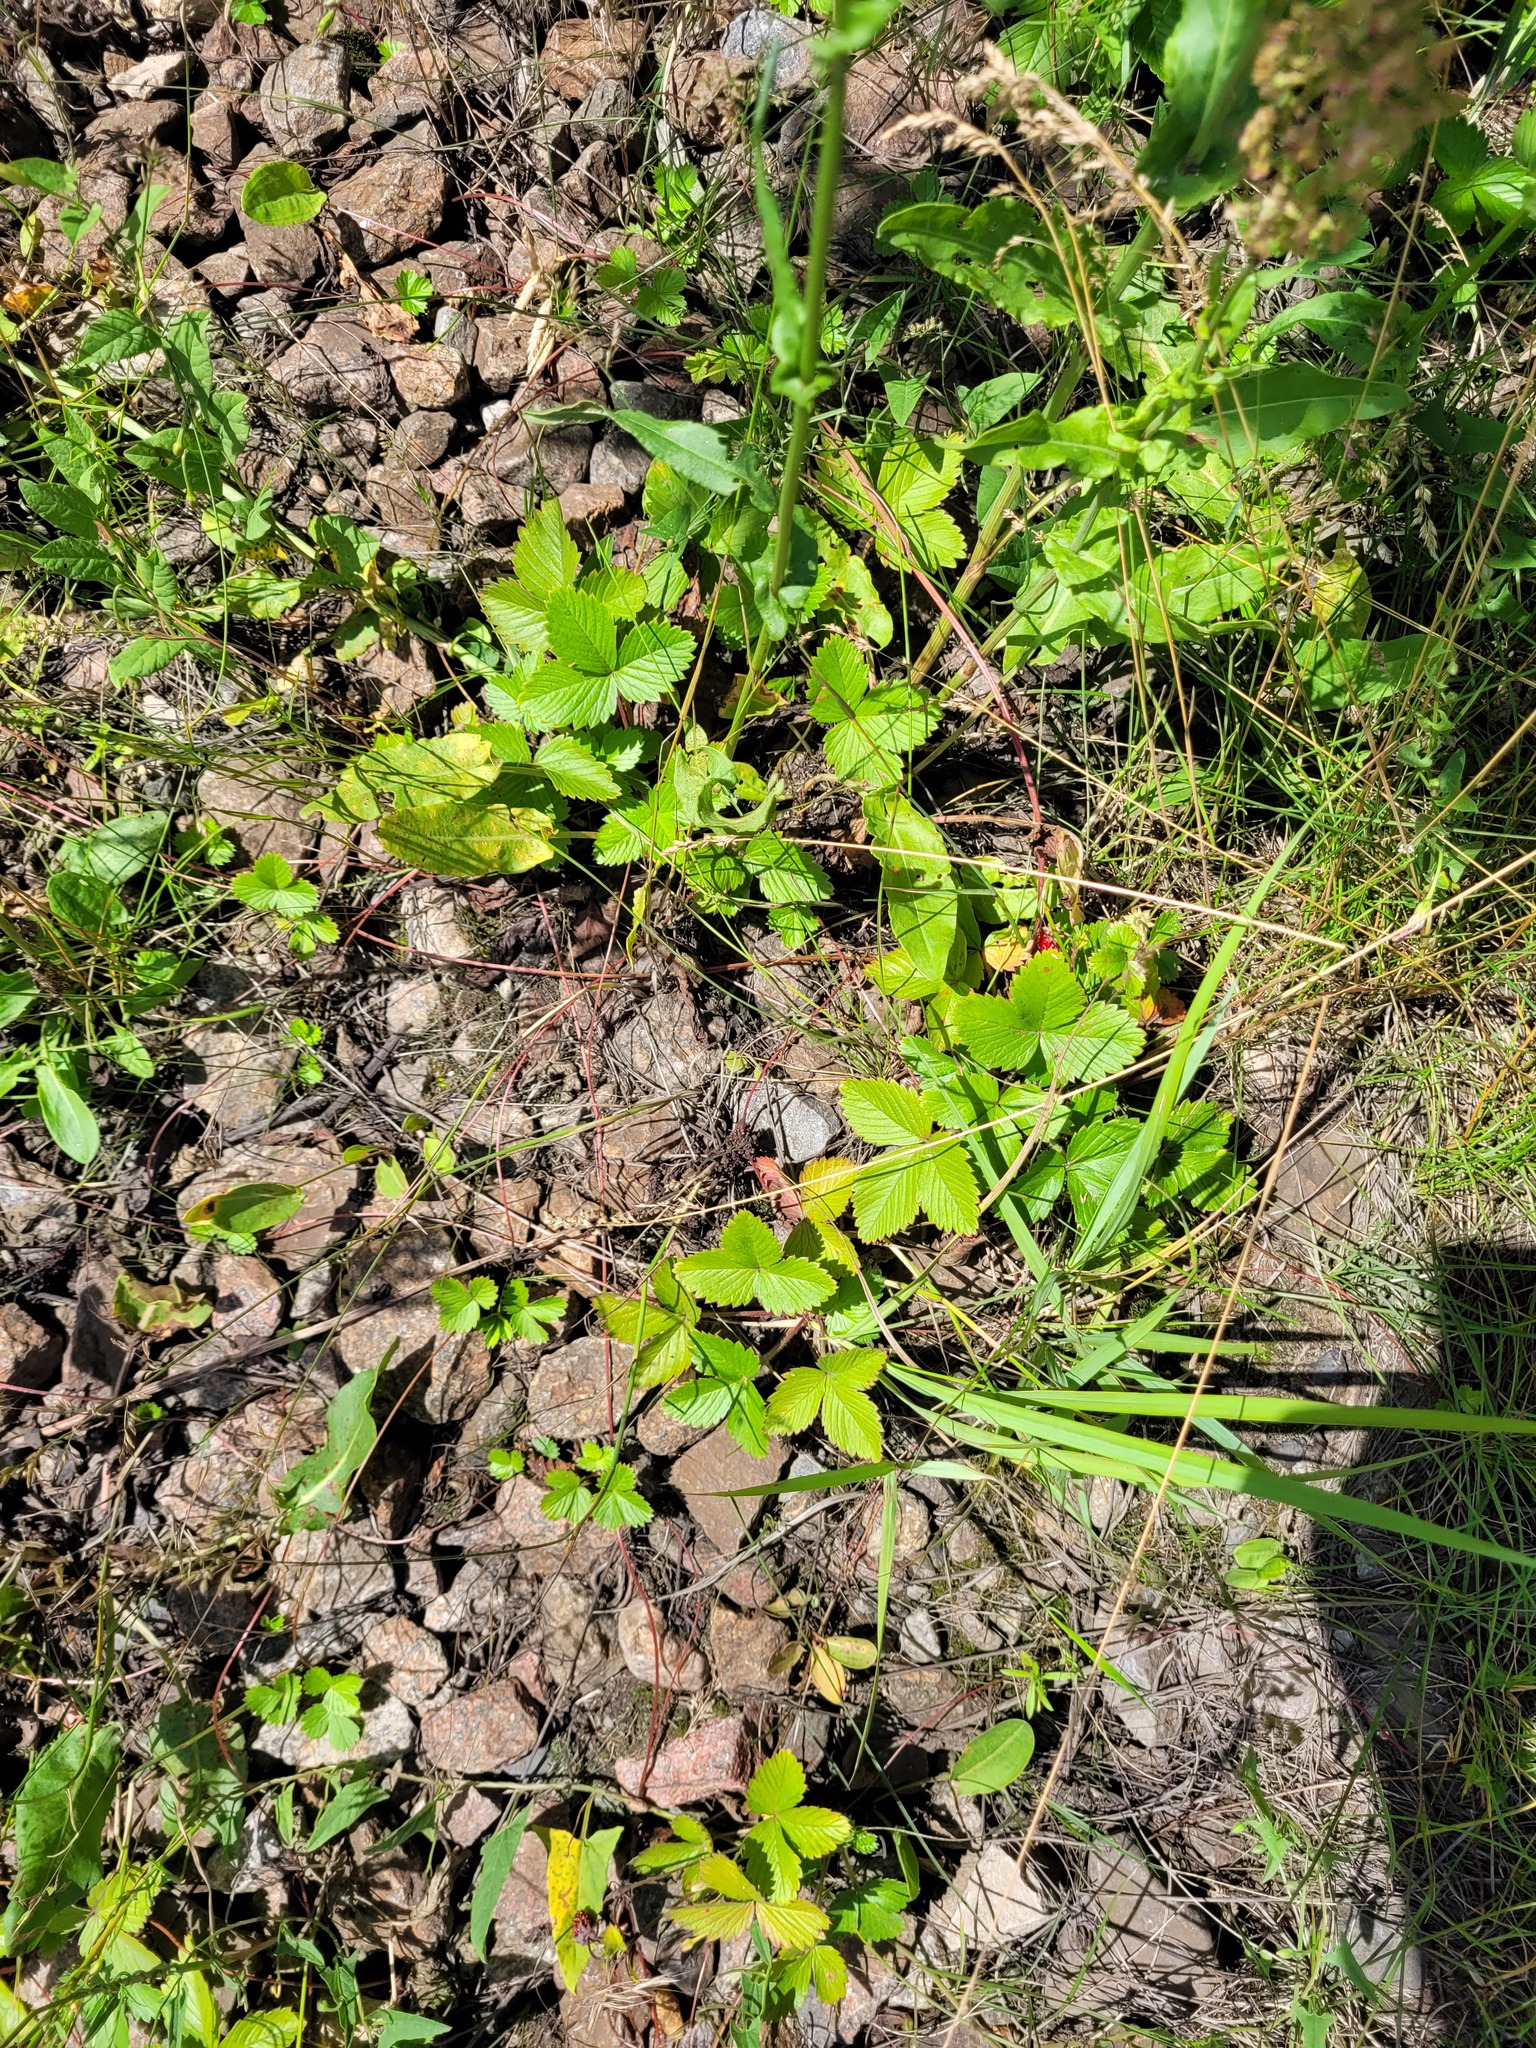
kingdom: Plantae
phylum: Tracheophyta
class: Magnoliopsida
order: Rosales
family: Rosaceae
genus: Fragaria
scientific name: Fragaria vesca
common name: Wild strawberry
